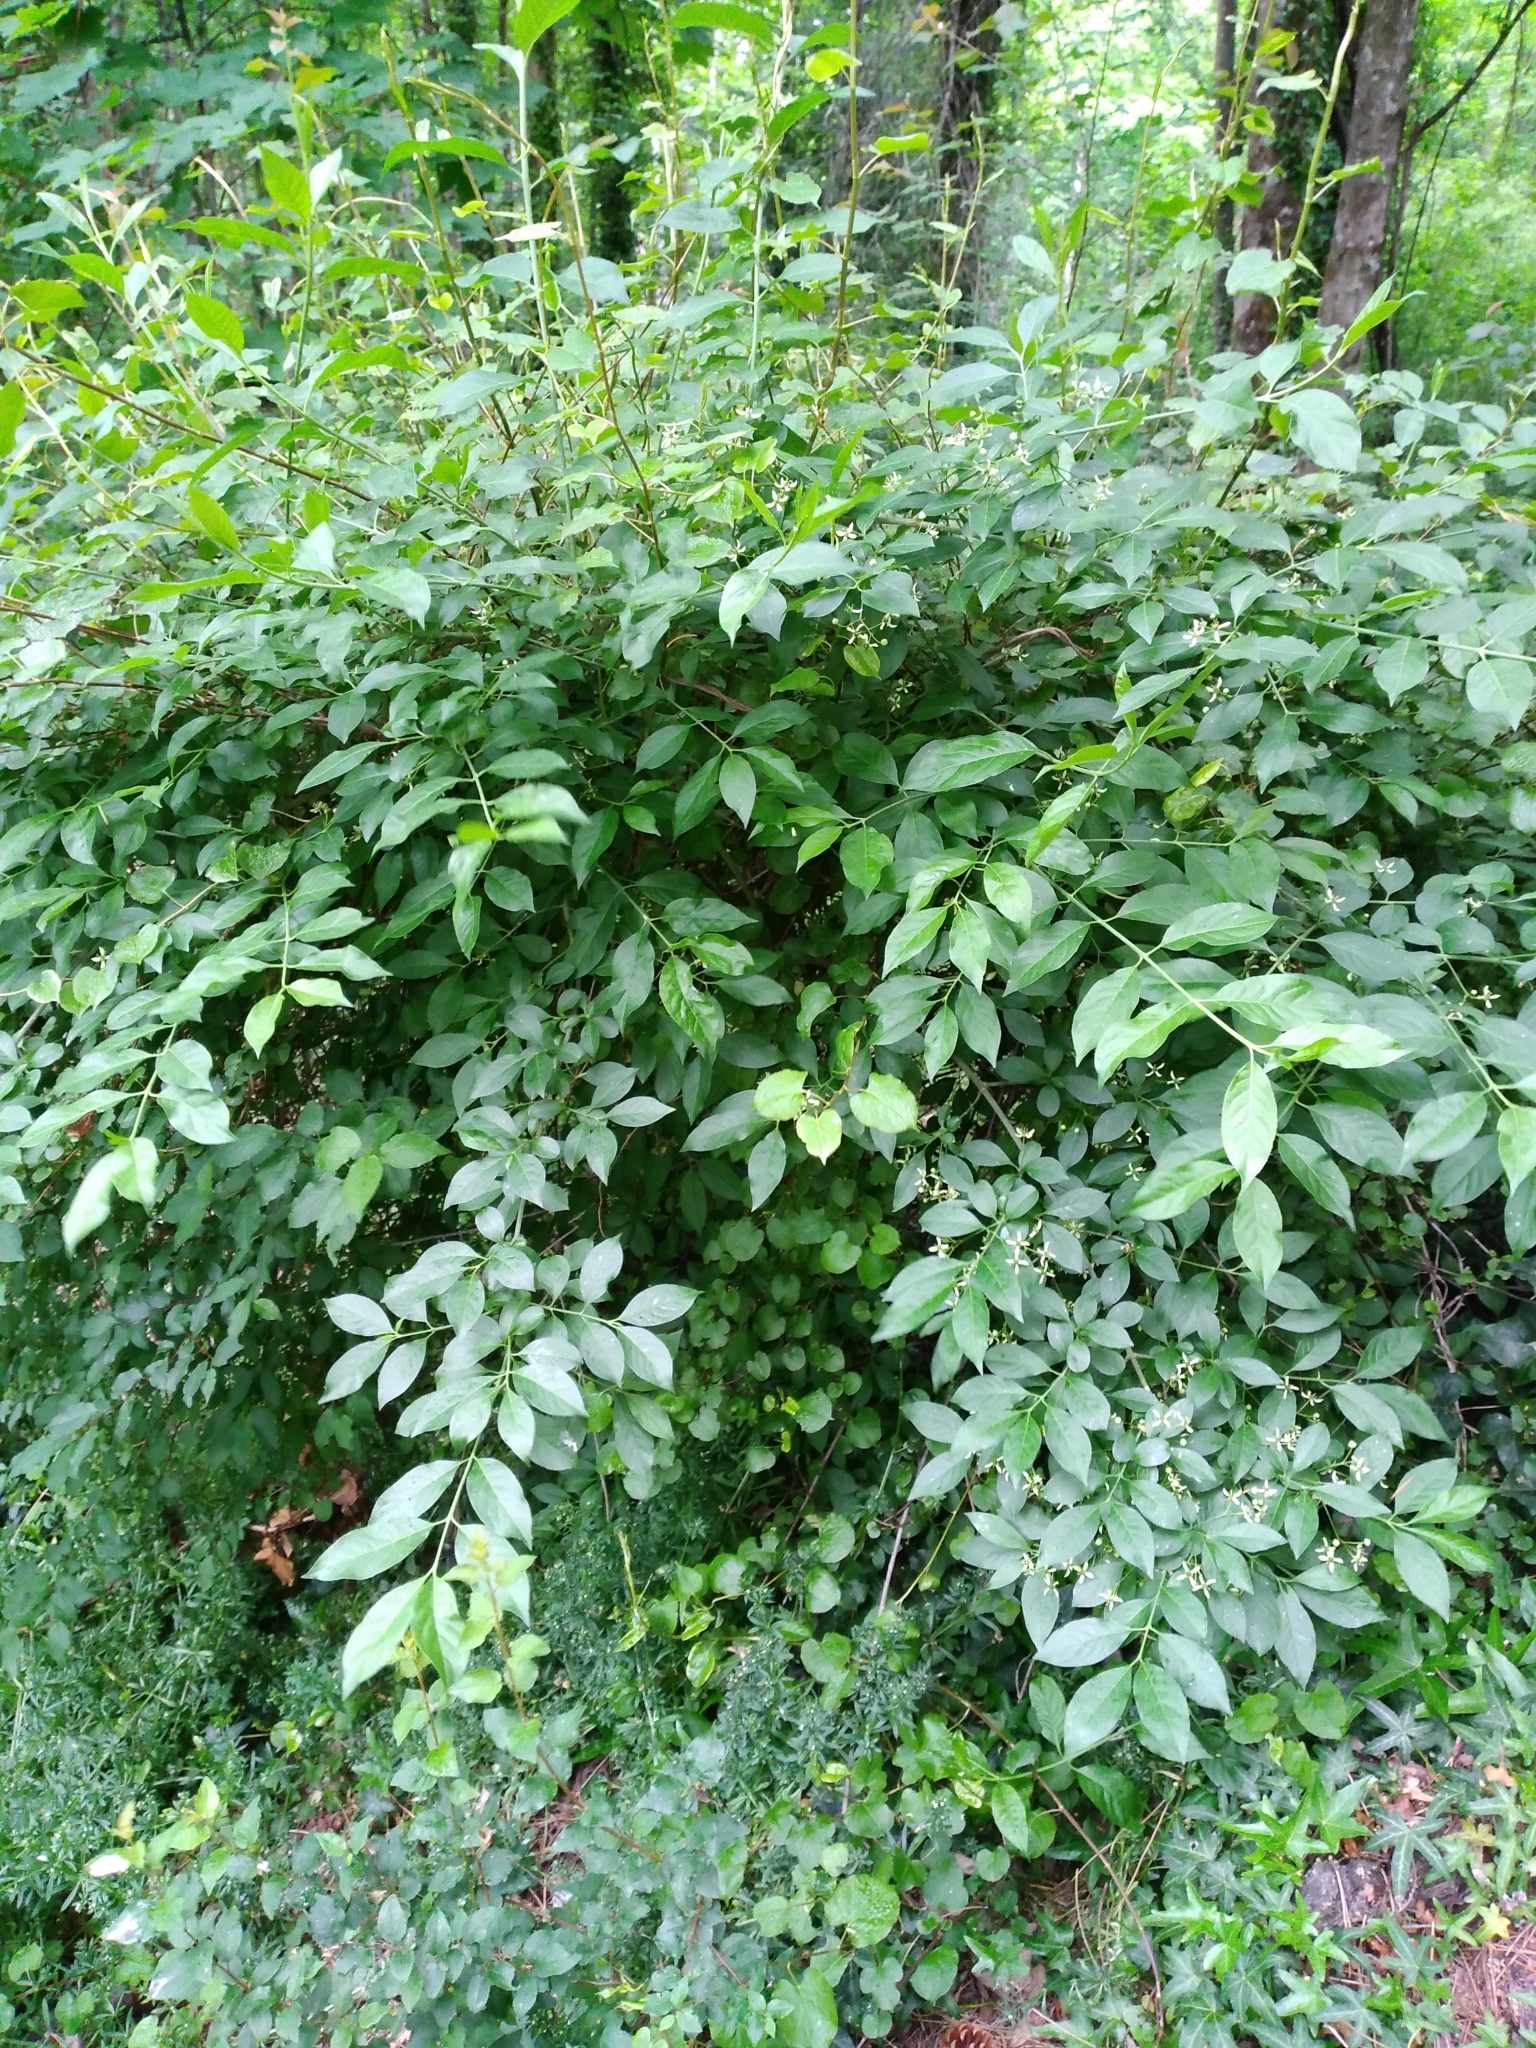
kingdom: Plantae
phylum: Tracheophyta
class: Magnoliopsida
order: Celastrales
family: Celastraceae
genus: Euonymus
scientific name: Euonymus europaeus
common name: Spindle
